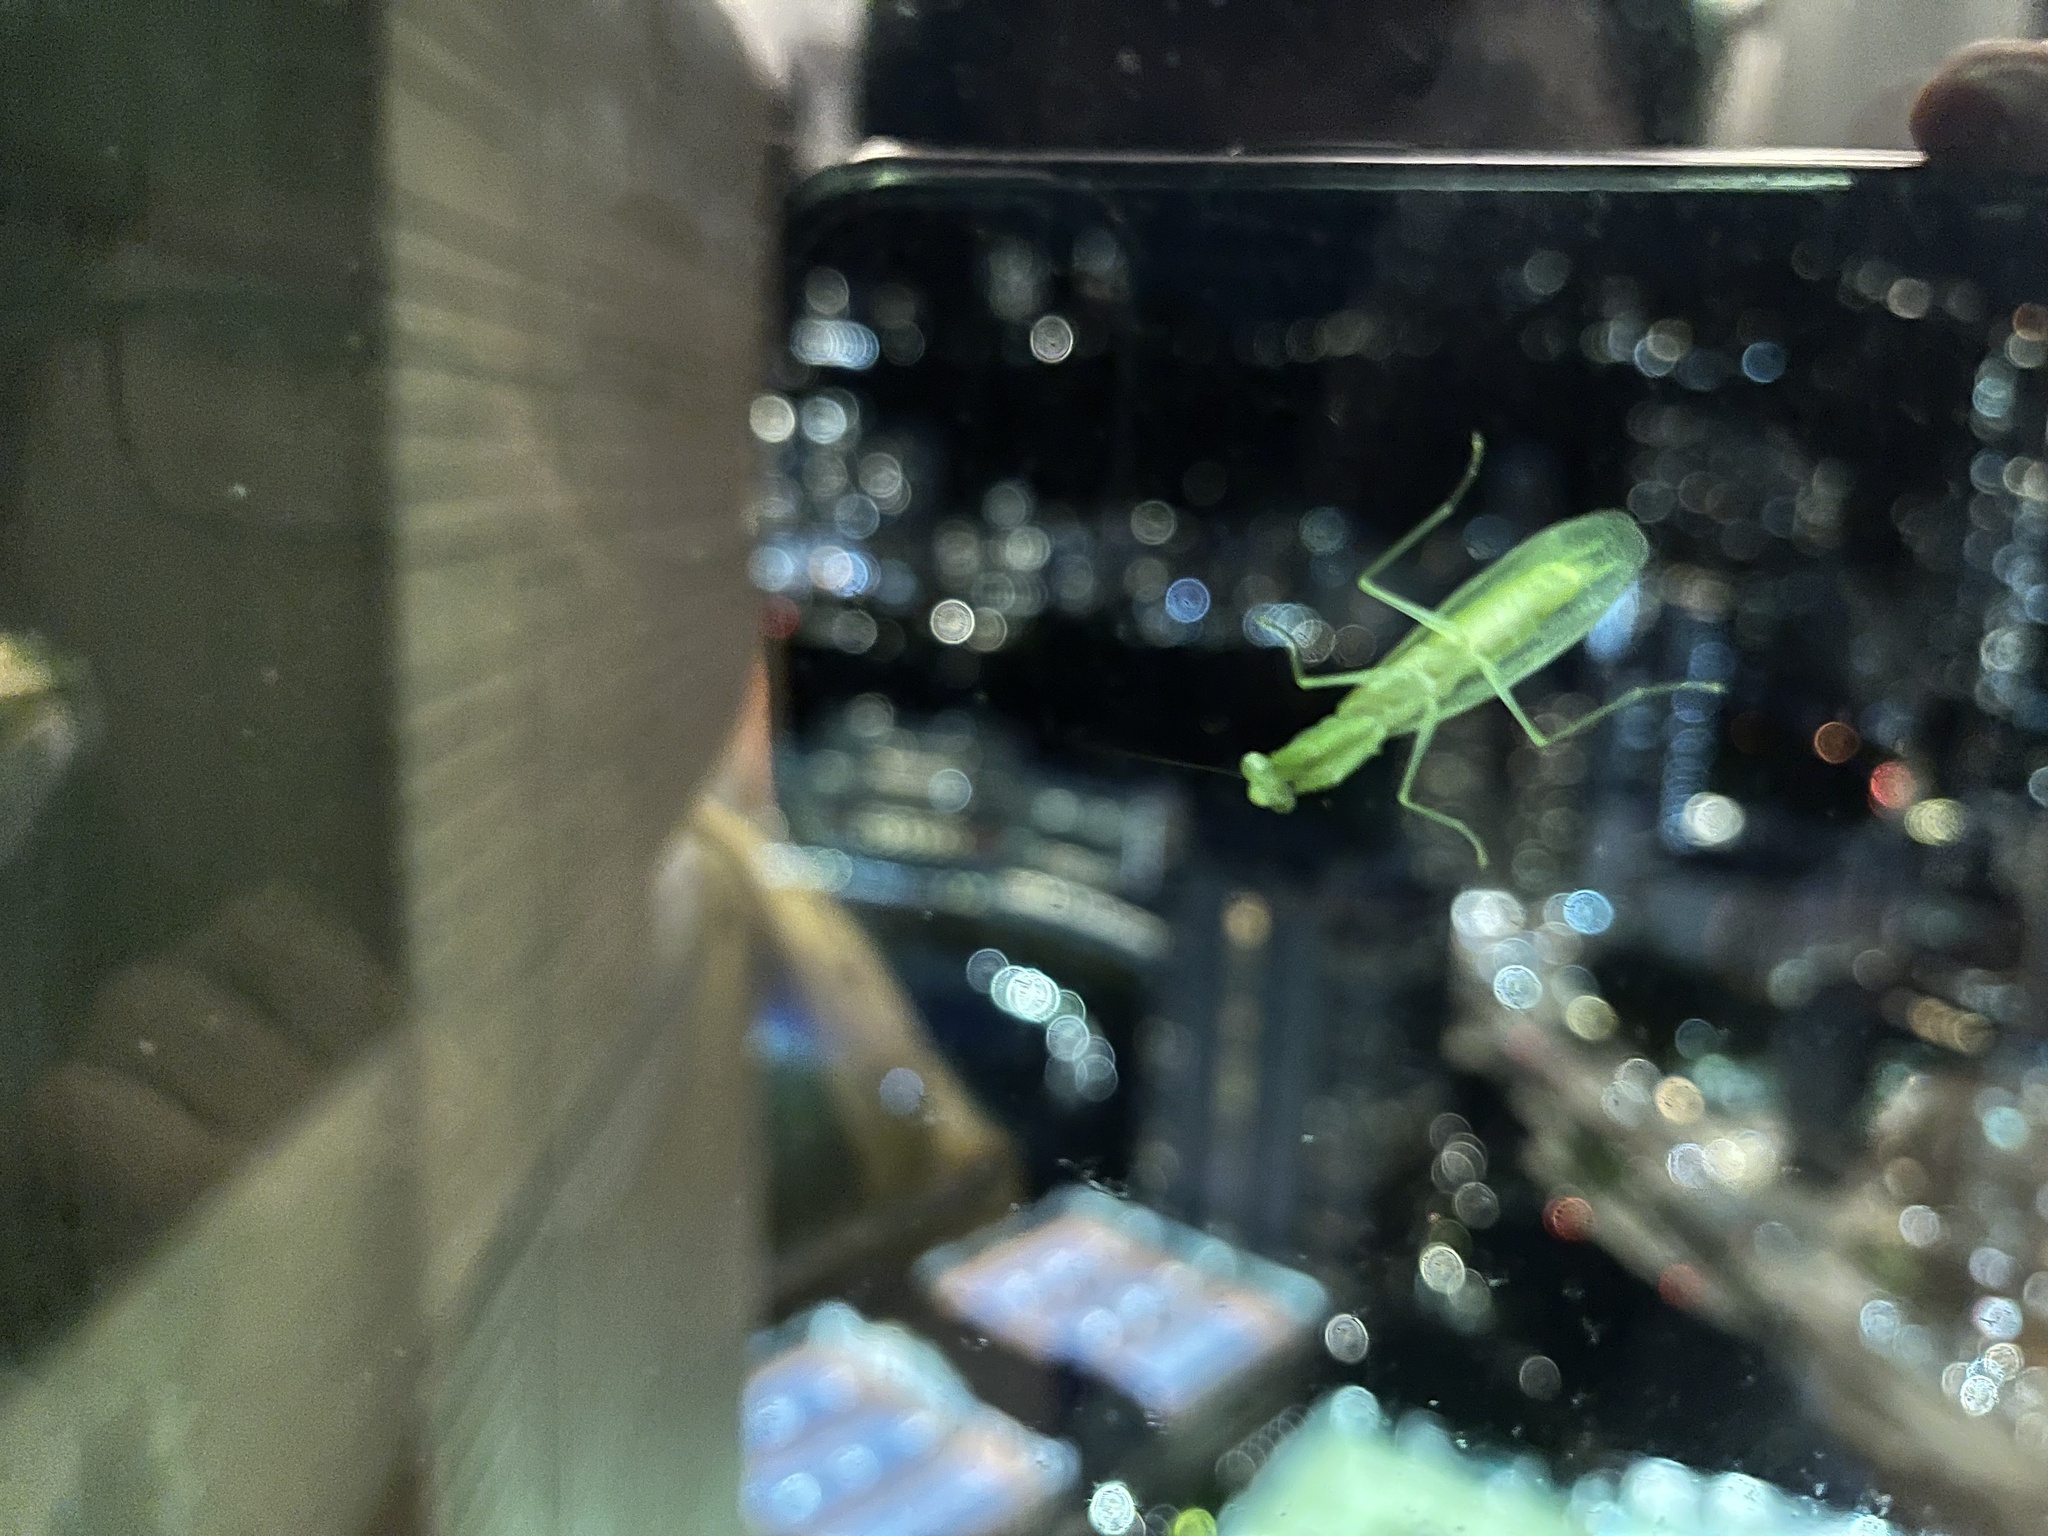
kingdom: Animalia
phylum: Arthropoda
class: Insecta
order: Mantodea
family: Nanomantidae
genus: Tropidomantis
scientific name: Tropidomantis gressitti
